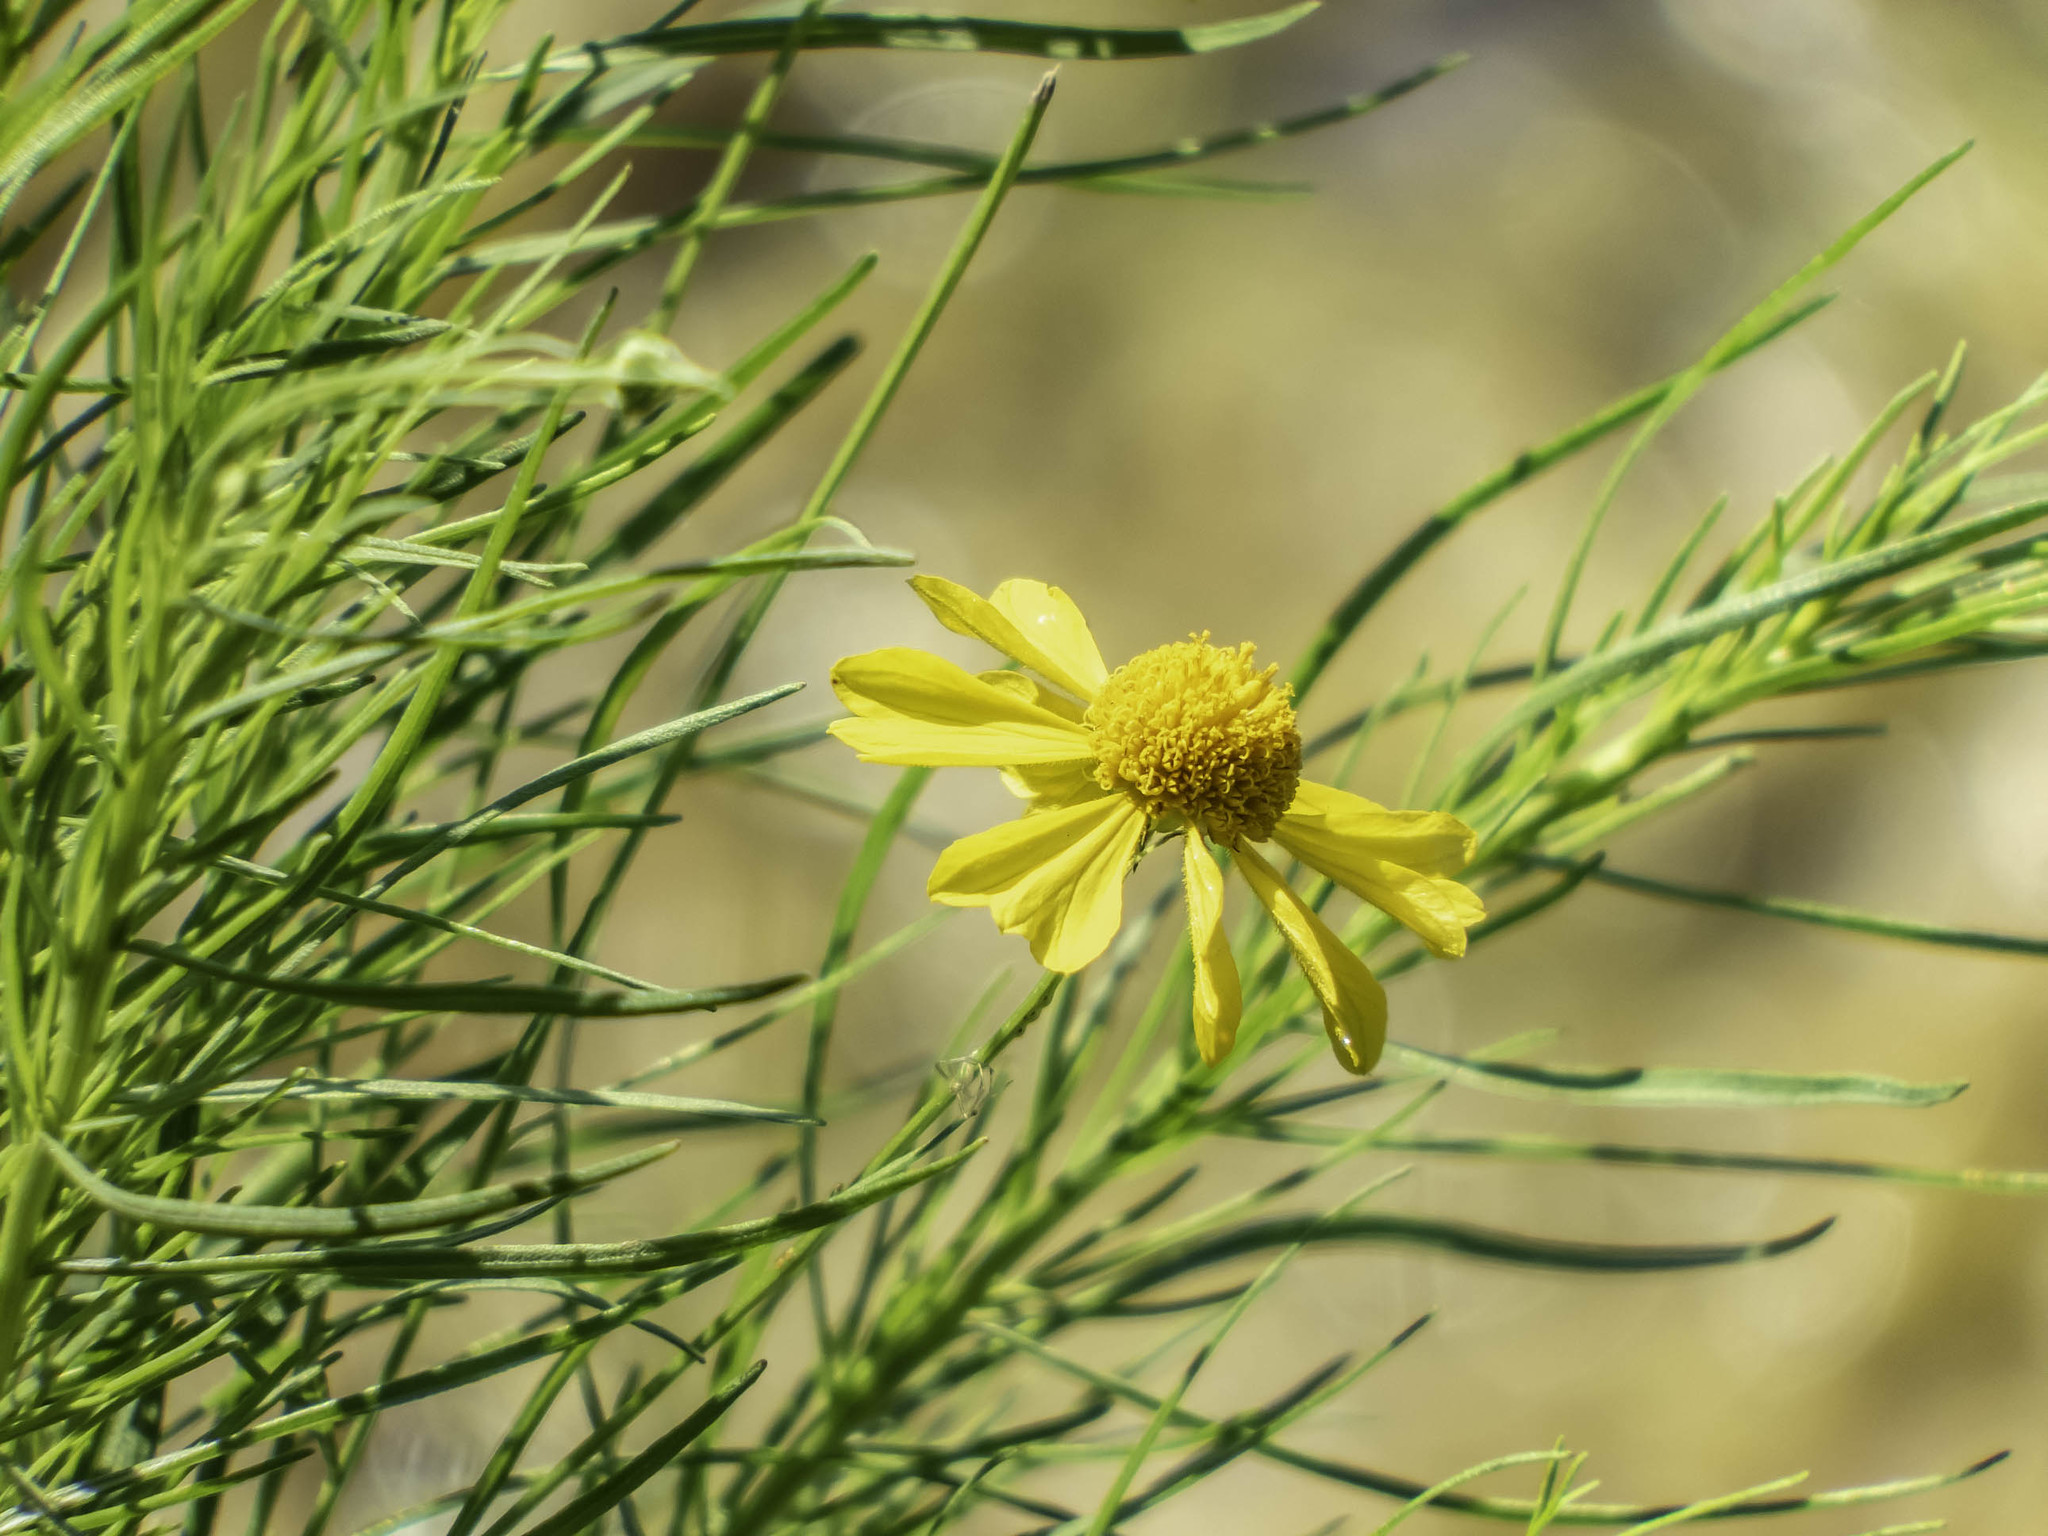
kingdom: Plantae
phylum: Tracheophyta
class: Magnoliopsida
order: Asterales
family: Asteraceae
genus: Helenium
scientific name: Helenium amarum
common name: Bitter sneezeweed
